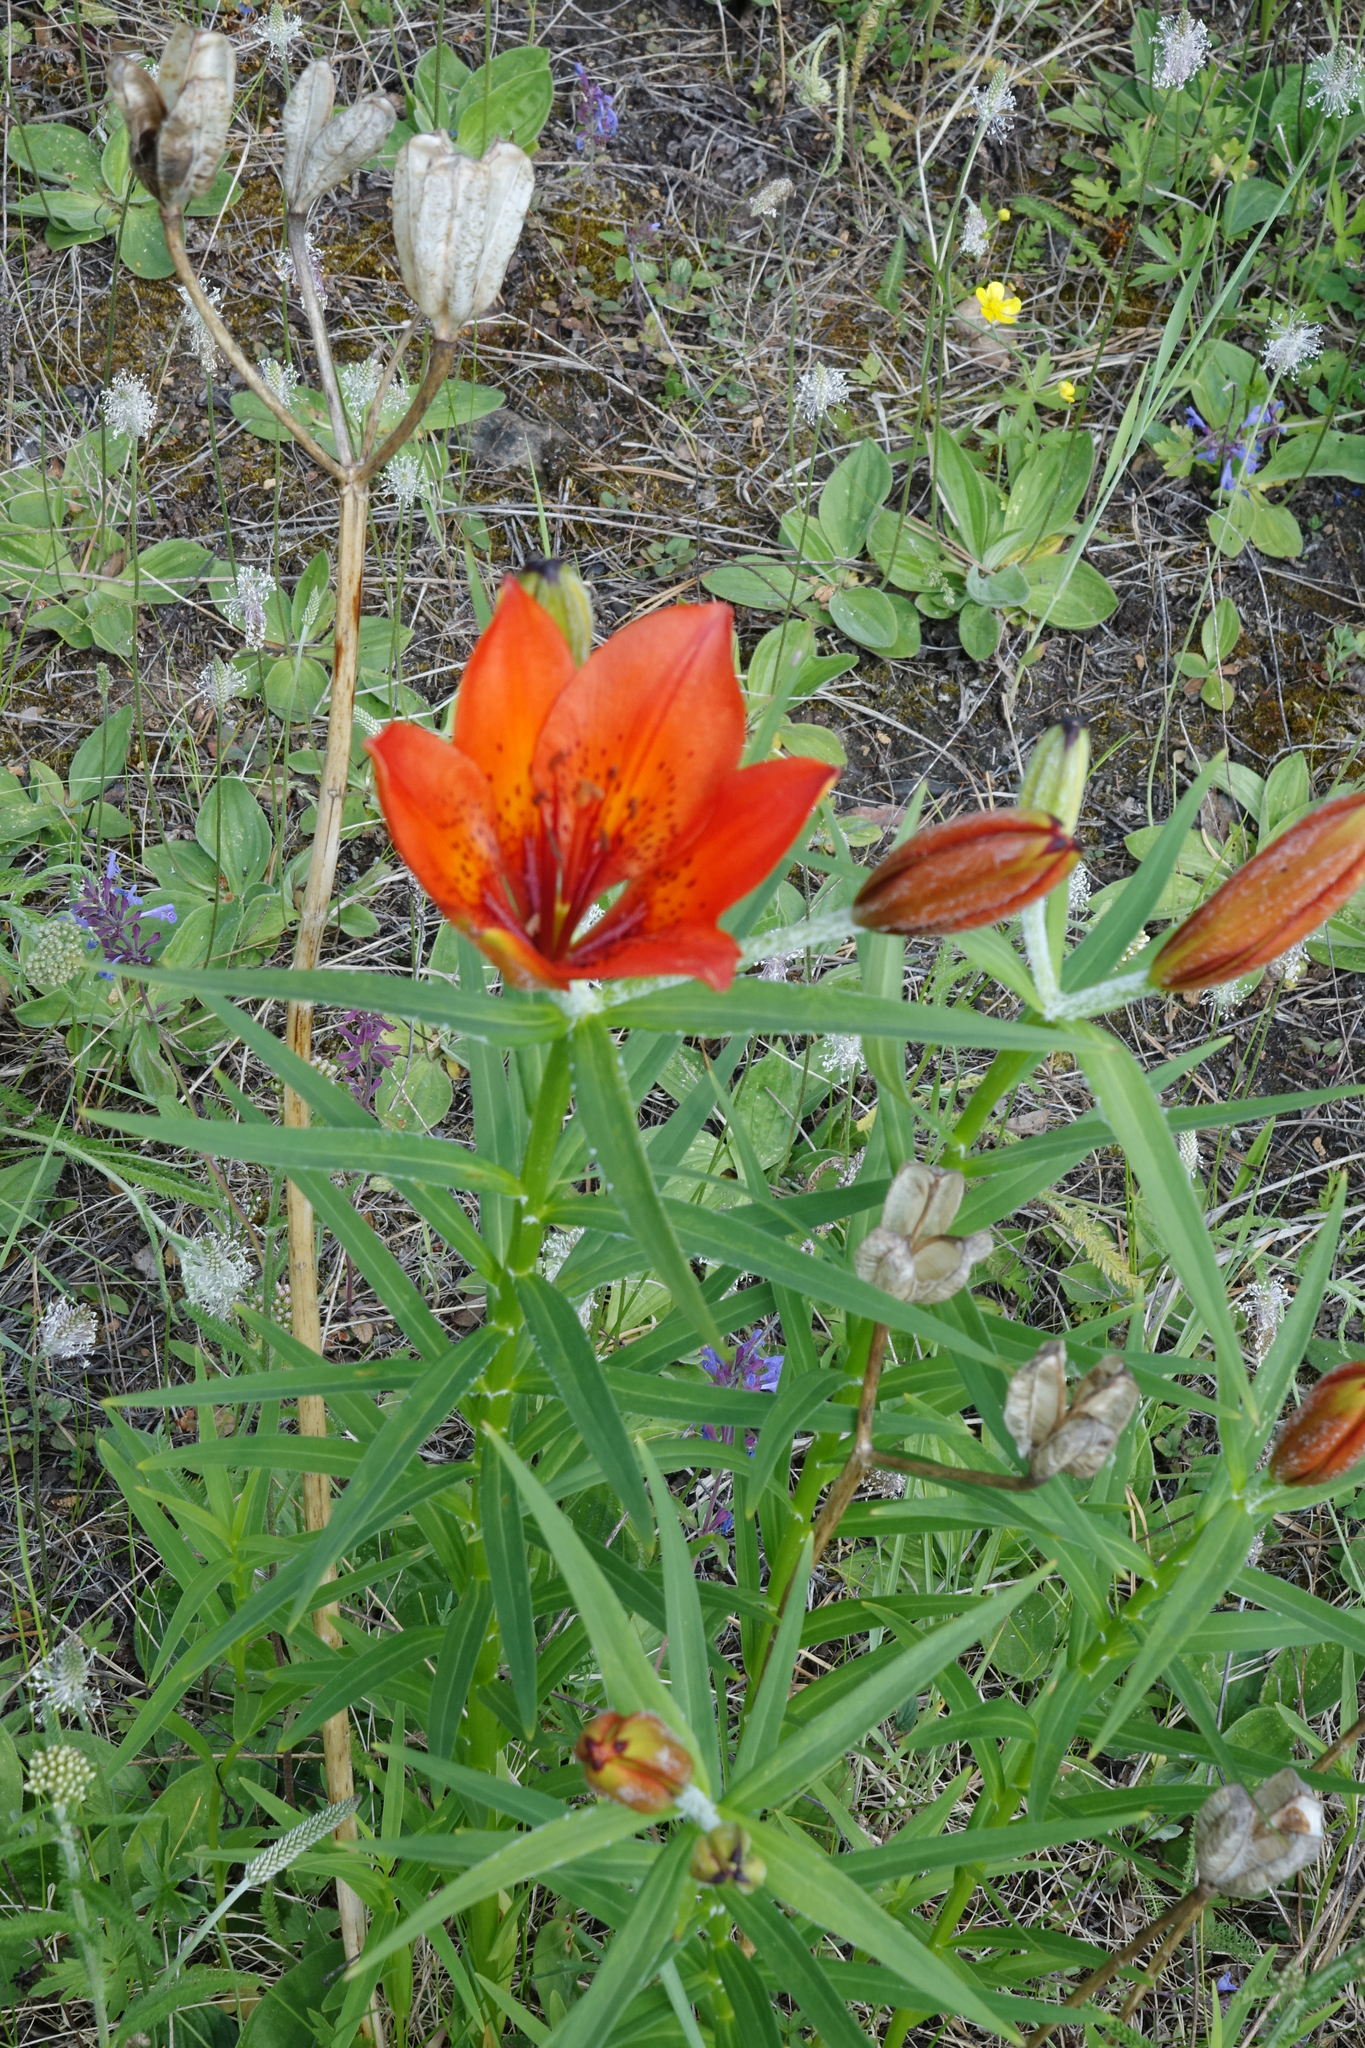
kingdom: Plantae
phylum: Tracheophyta
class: Liliopsida
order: Liliales
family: Liliaceae
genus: Lilium
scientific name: Lilium pensylvanicum
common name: Candlestick lily
